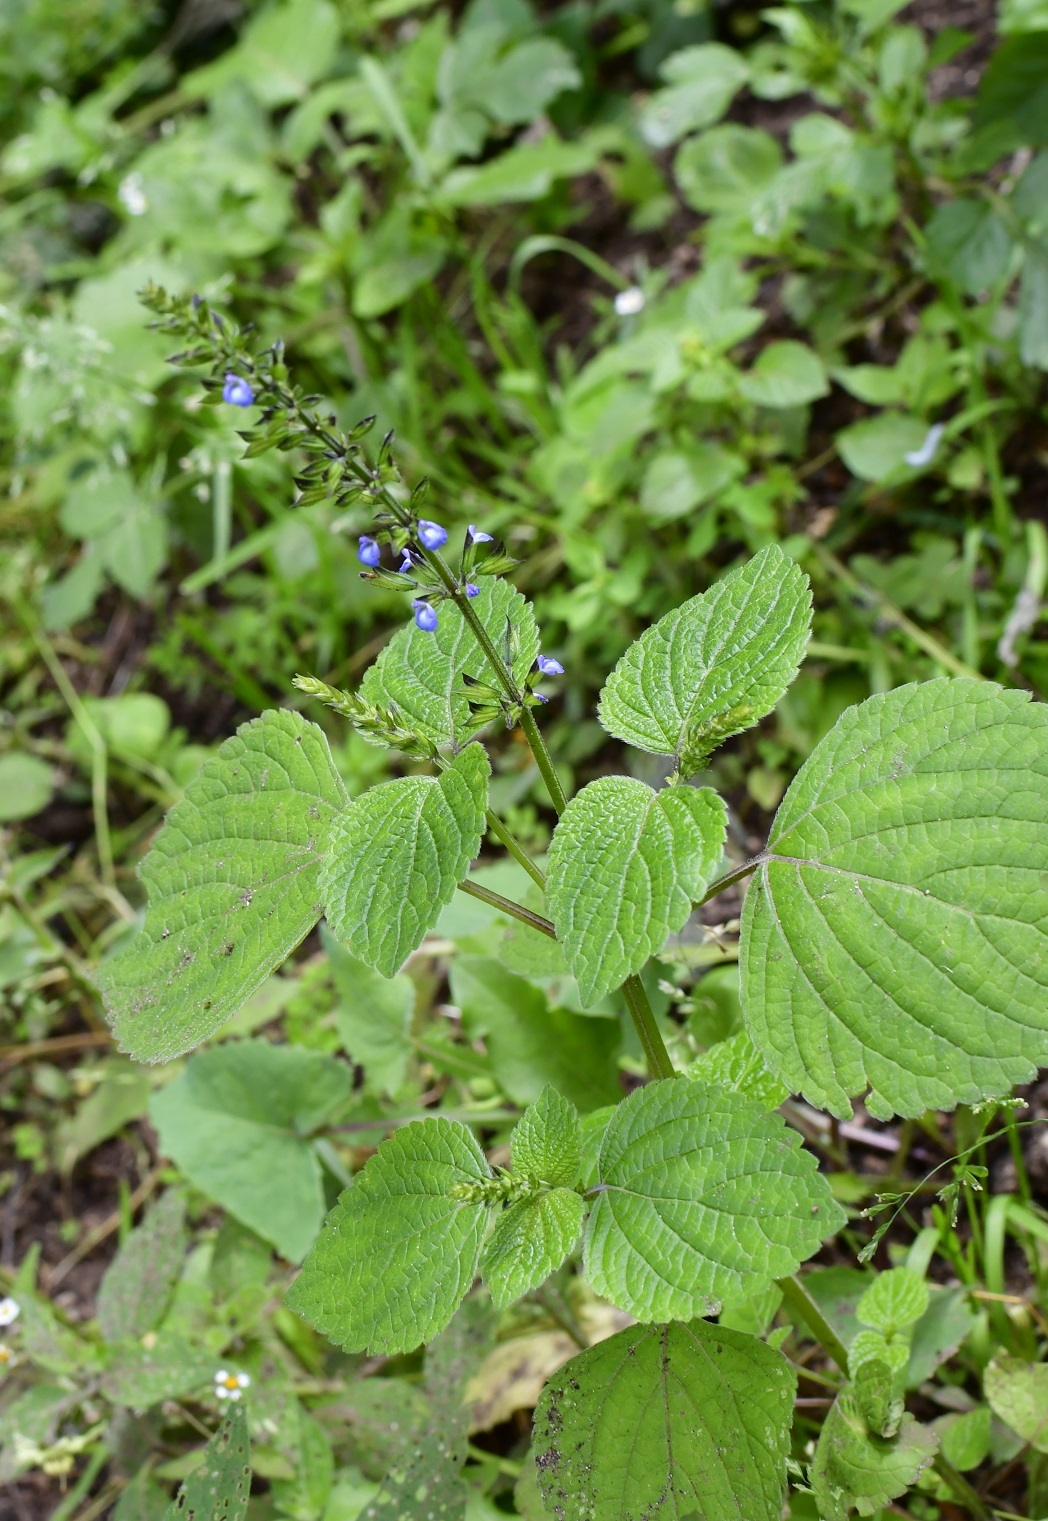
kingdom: Plantae
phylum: Tracheophyta
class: Magnoliopsida
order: Lamiales
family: Lamiaceae
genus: Salvia
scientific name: Salvia tiliifolia
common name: Lindenleaf sage
